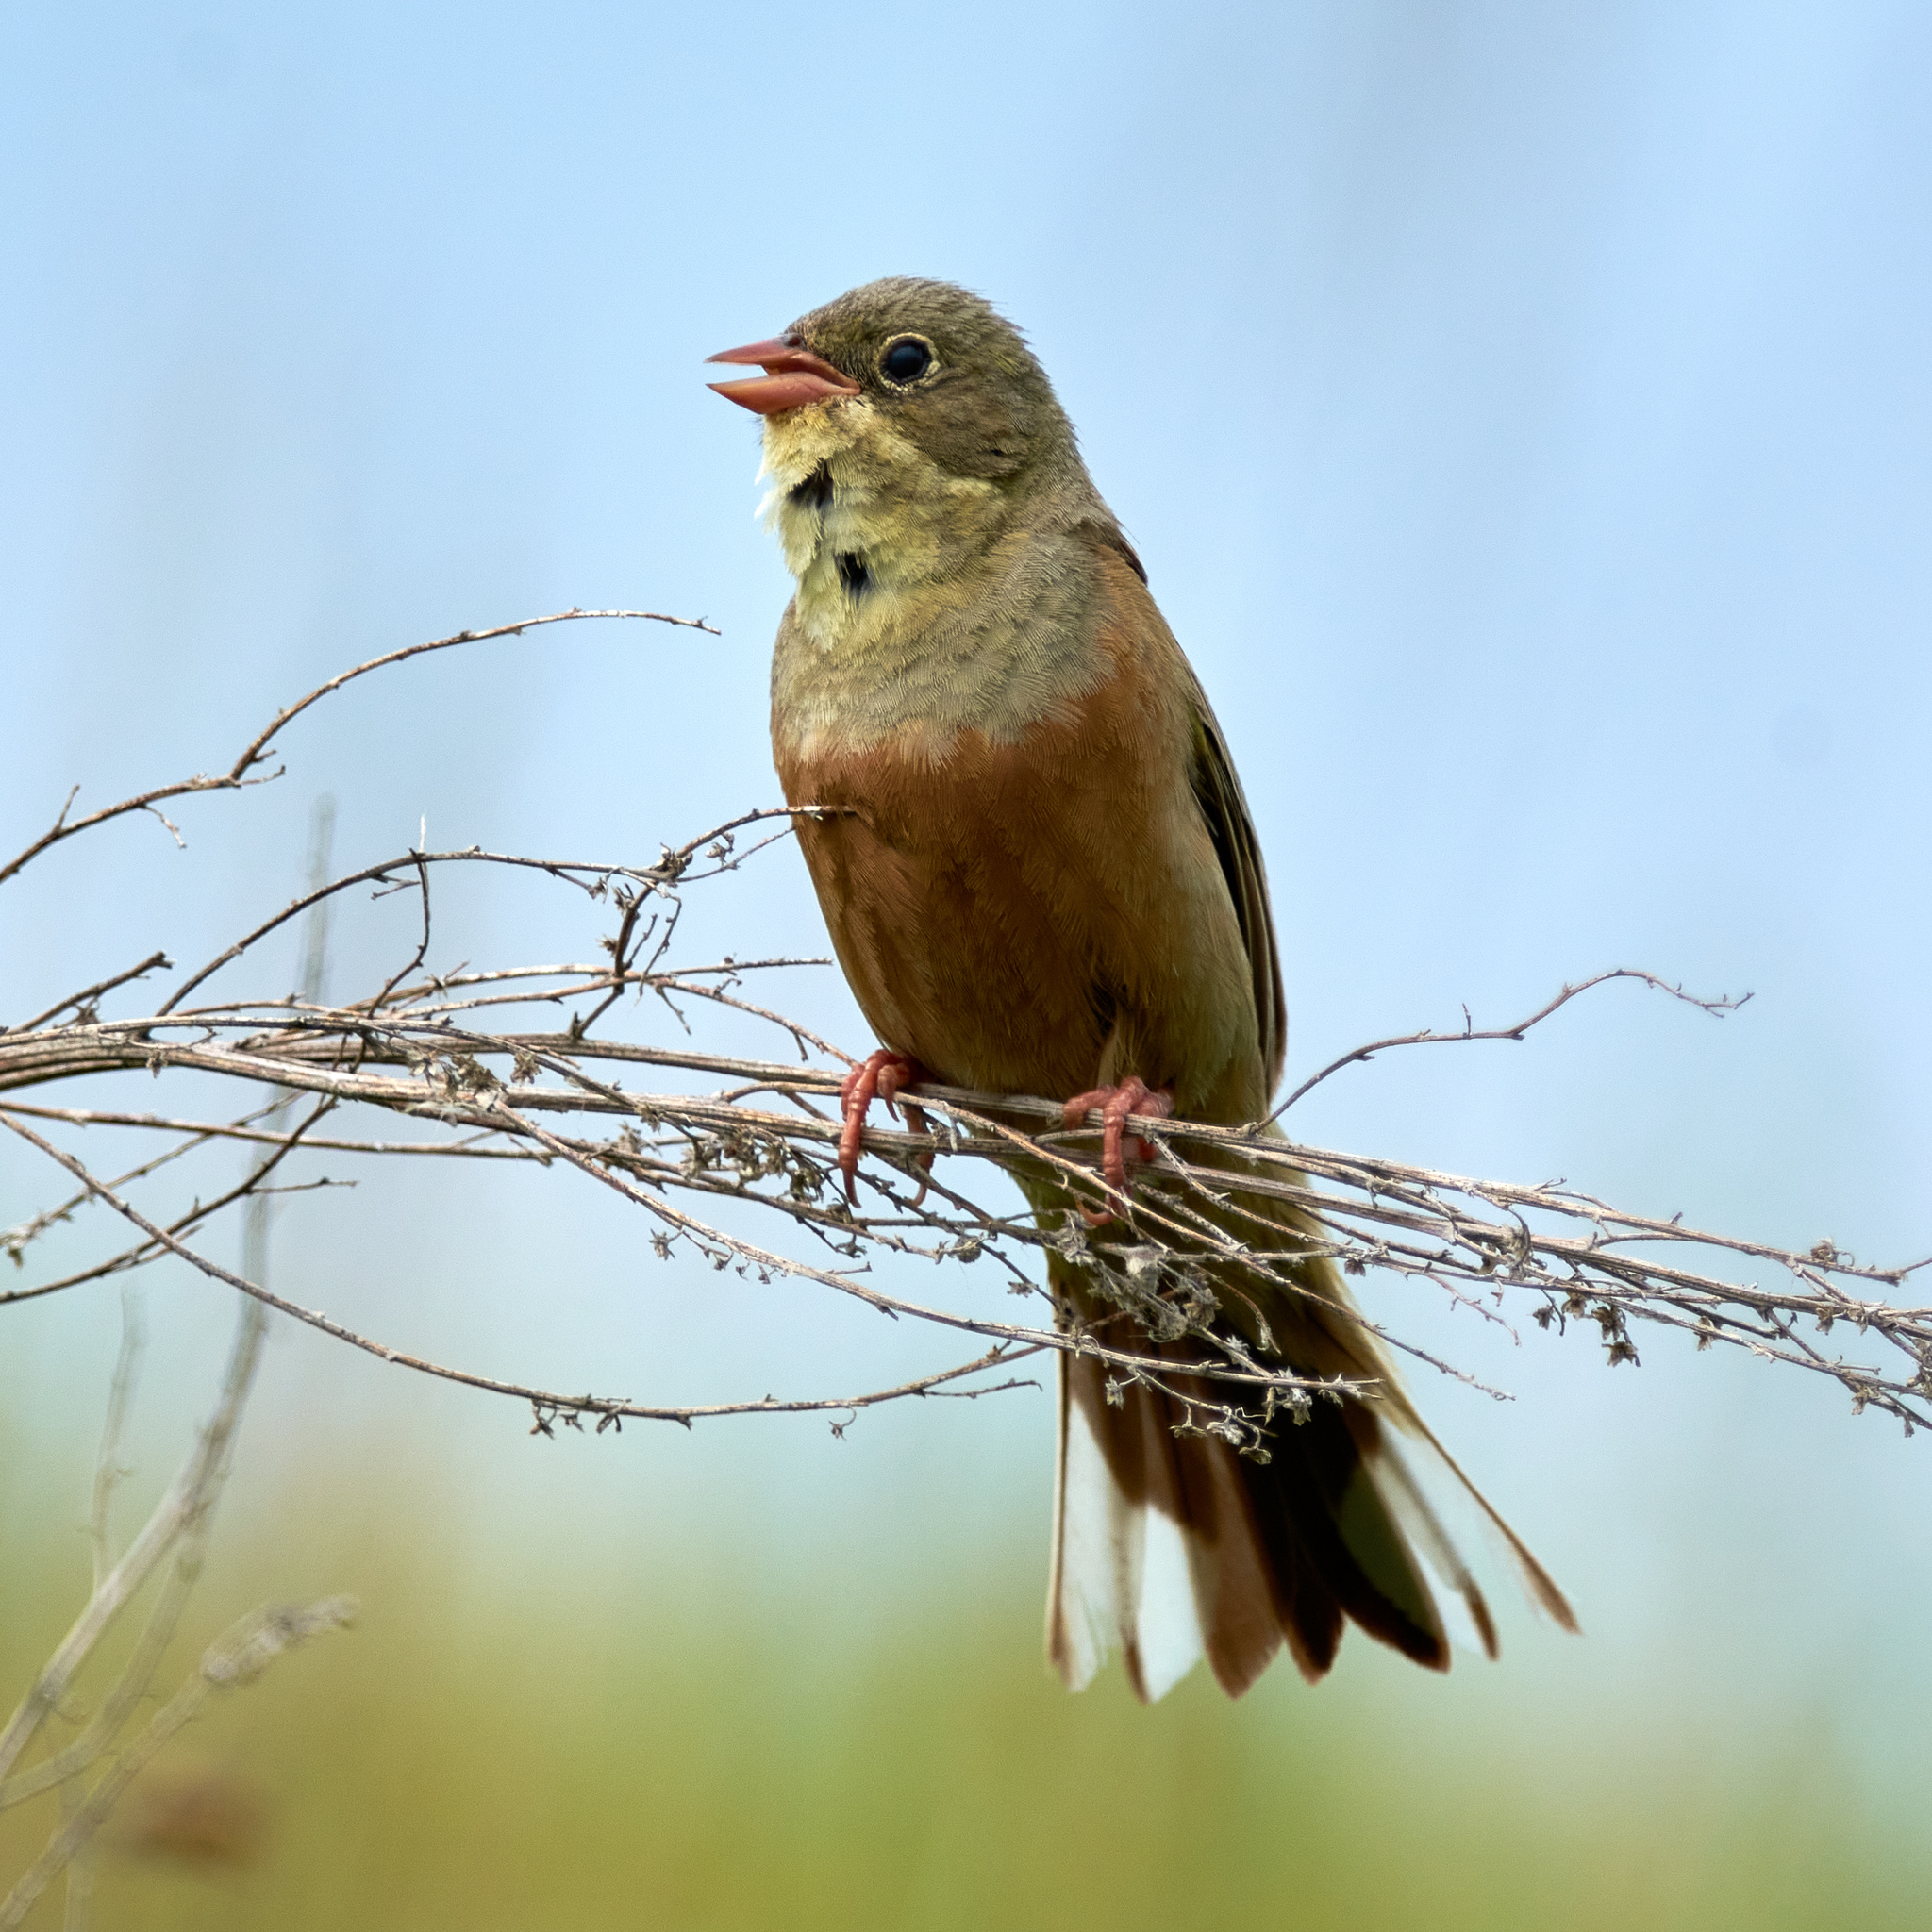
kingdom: Animalia
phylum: Chordata
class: Aves
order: Passeriformes
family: Emberizidae
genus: Emberiza
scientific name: Emberiza hortulana
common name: Ortolan bunting
